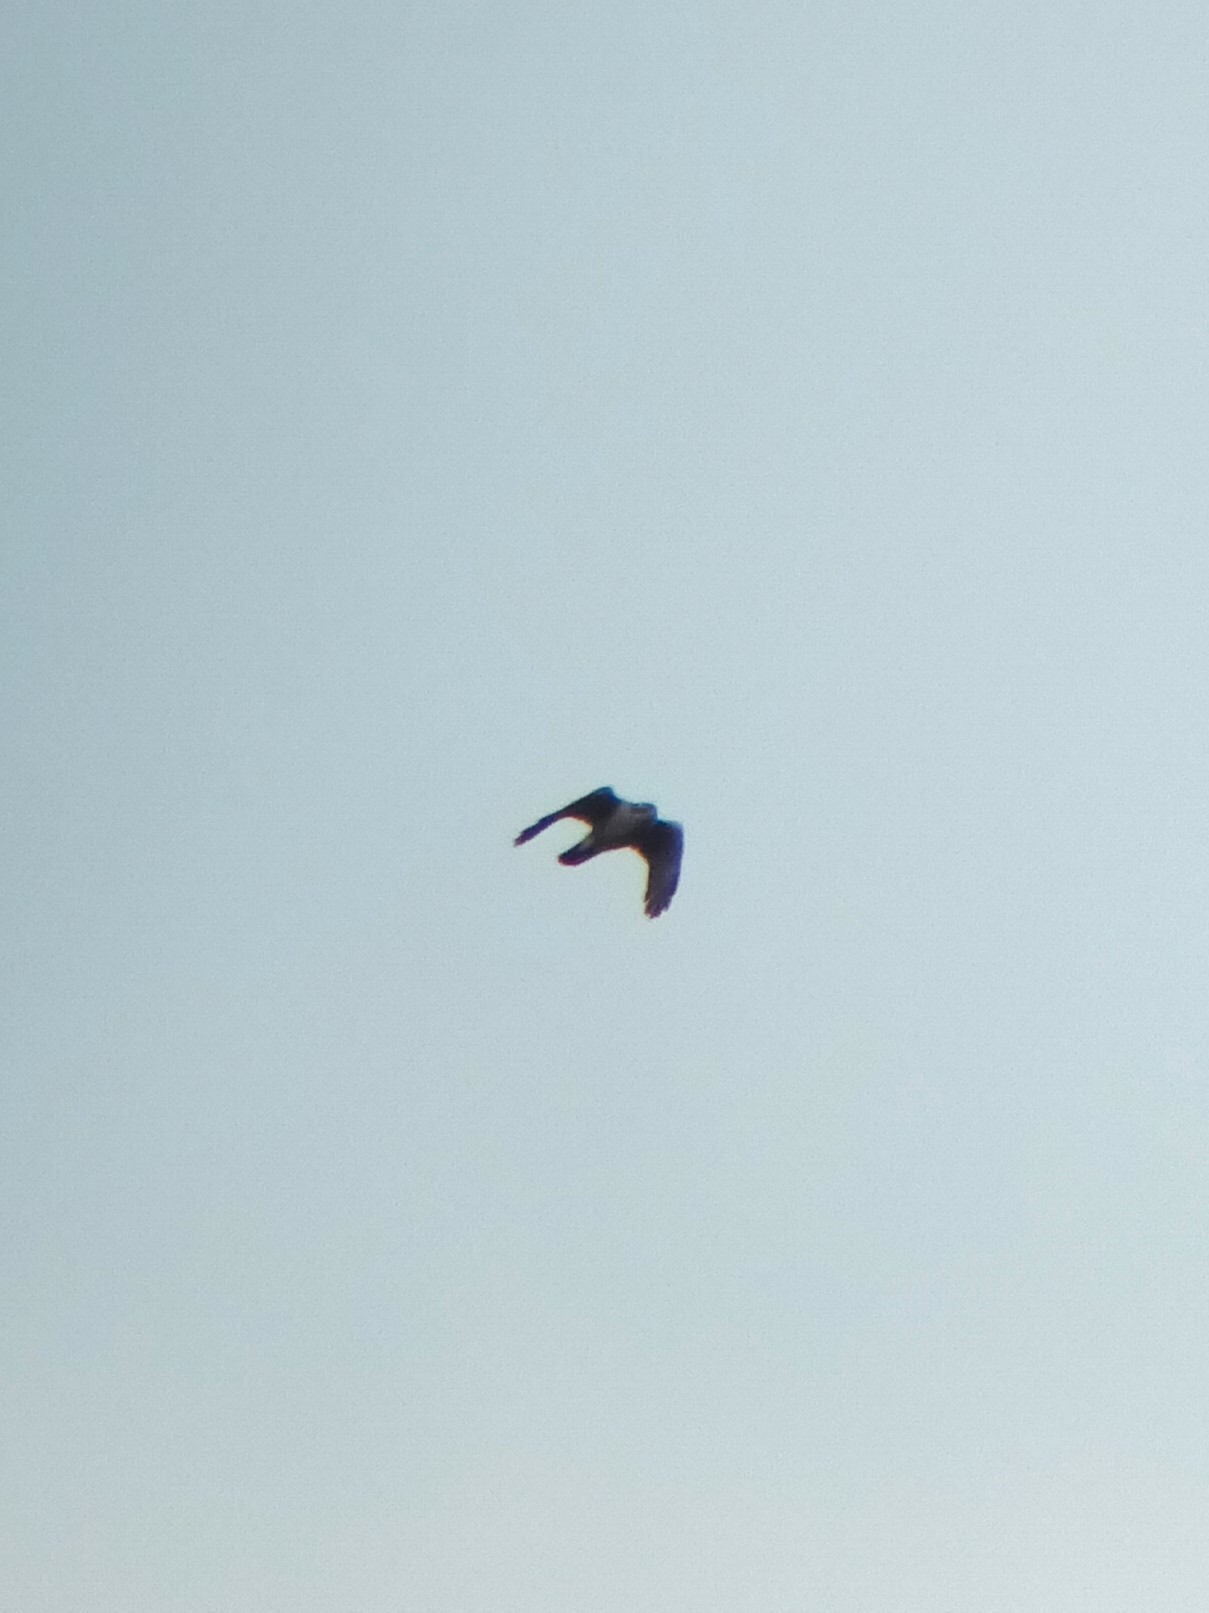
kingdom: Animalia
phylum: Chordata
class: Aves
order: Accipitriformes
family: Accipitridae
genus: Accipiter
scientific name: Accipiter gentilis
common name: Northern goshawk
